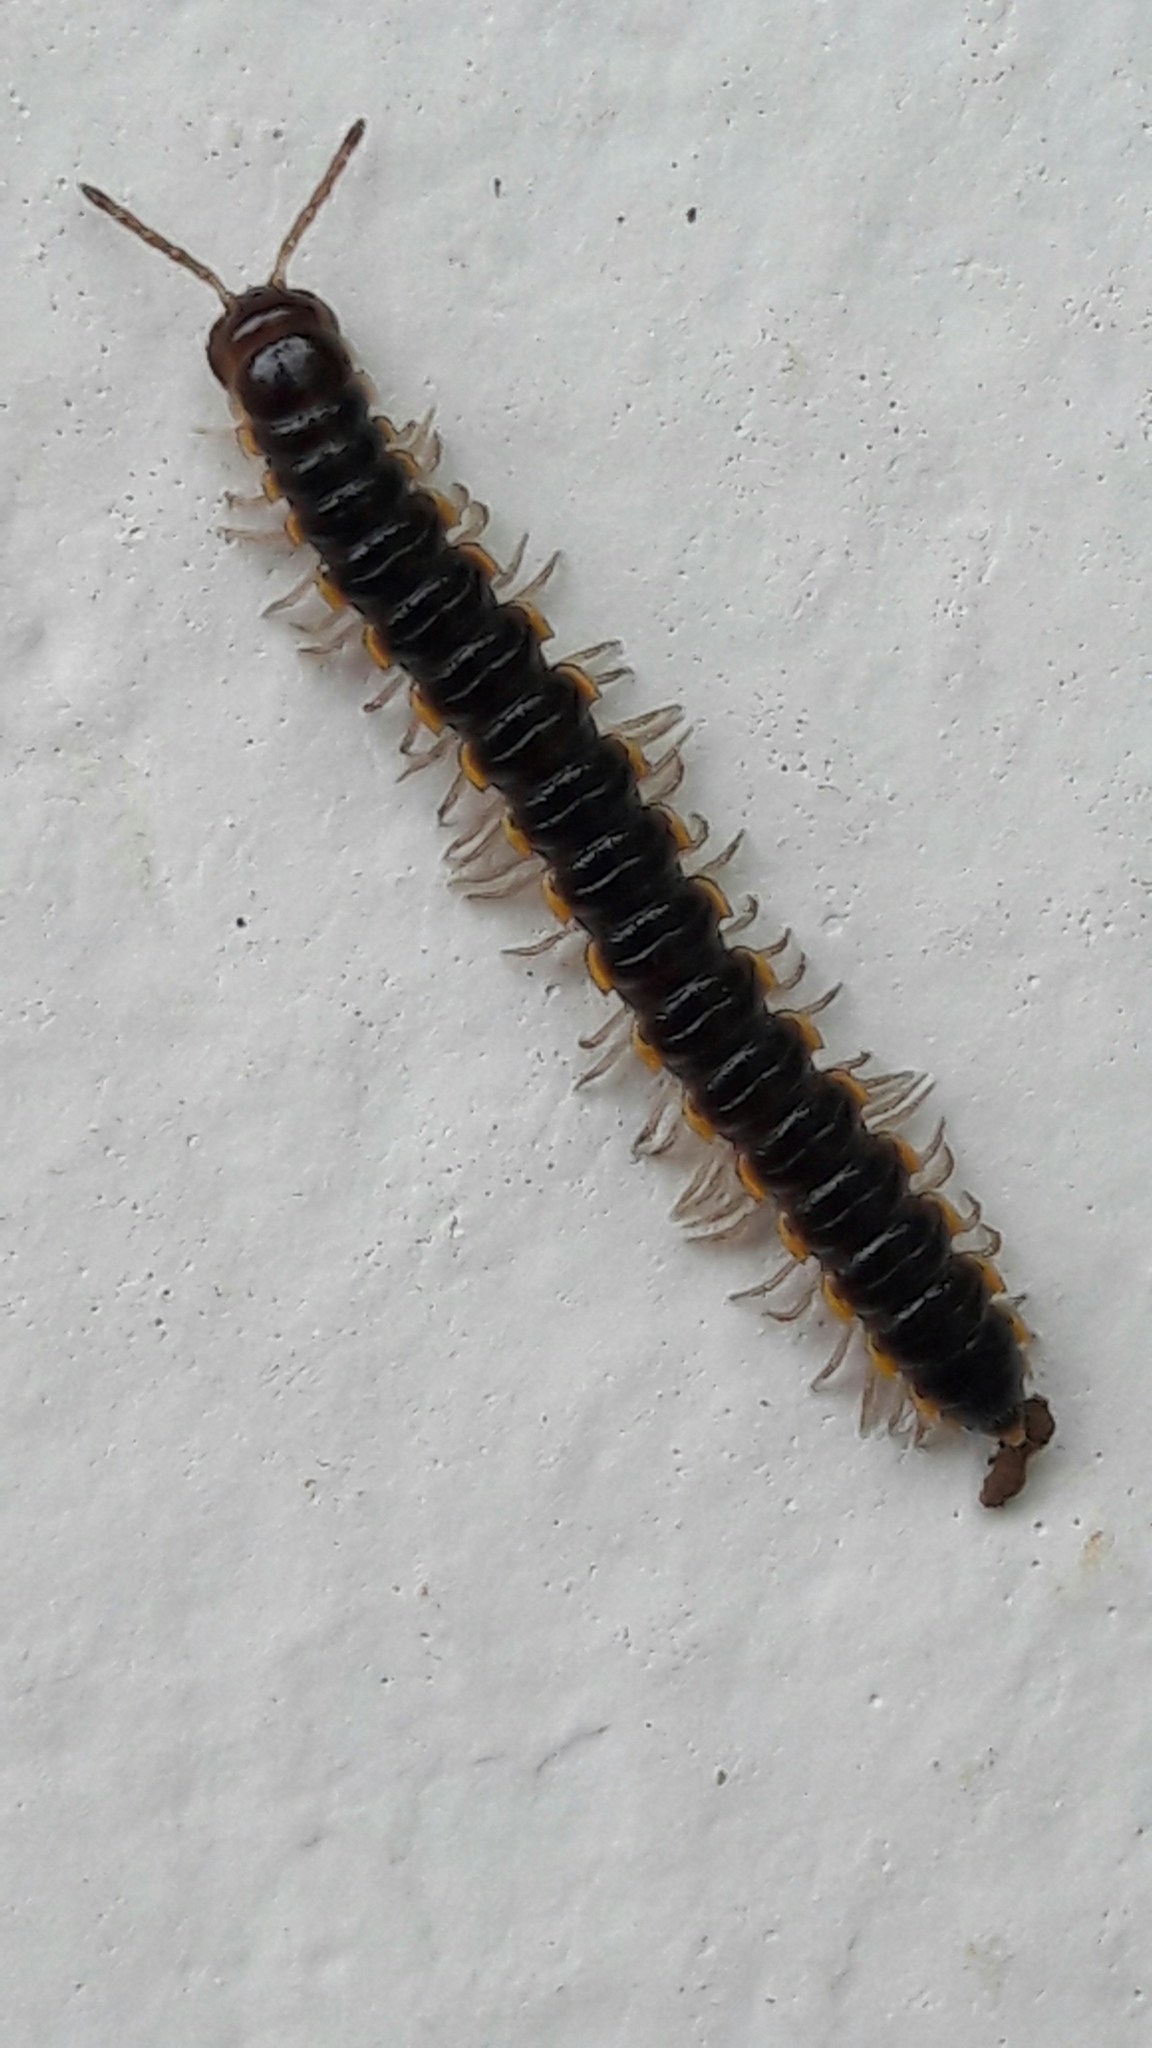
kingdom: Animalia
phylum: Arthropoda
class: Diplopoda
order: Polydesmida
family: Paradoxosomatidae
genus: Orthomorpha
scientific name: Orthomorpha coarctata
